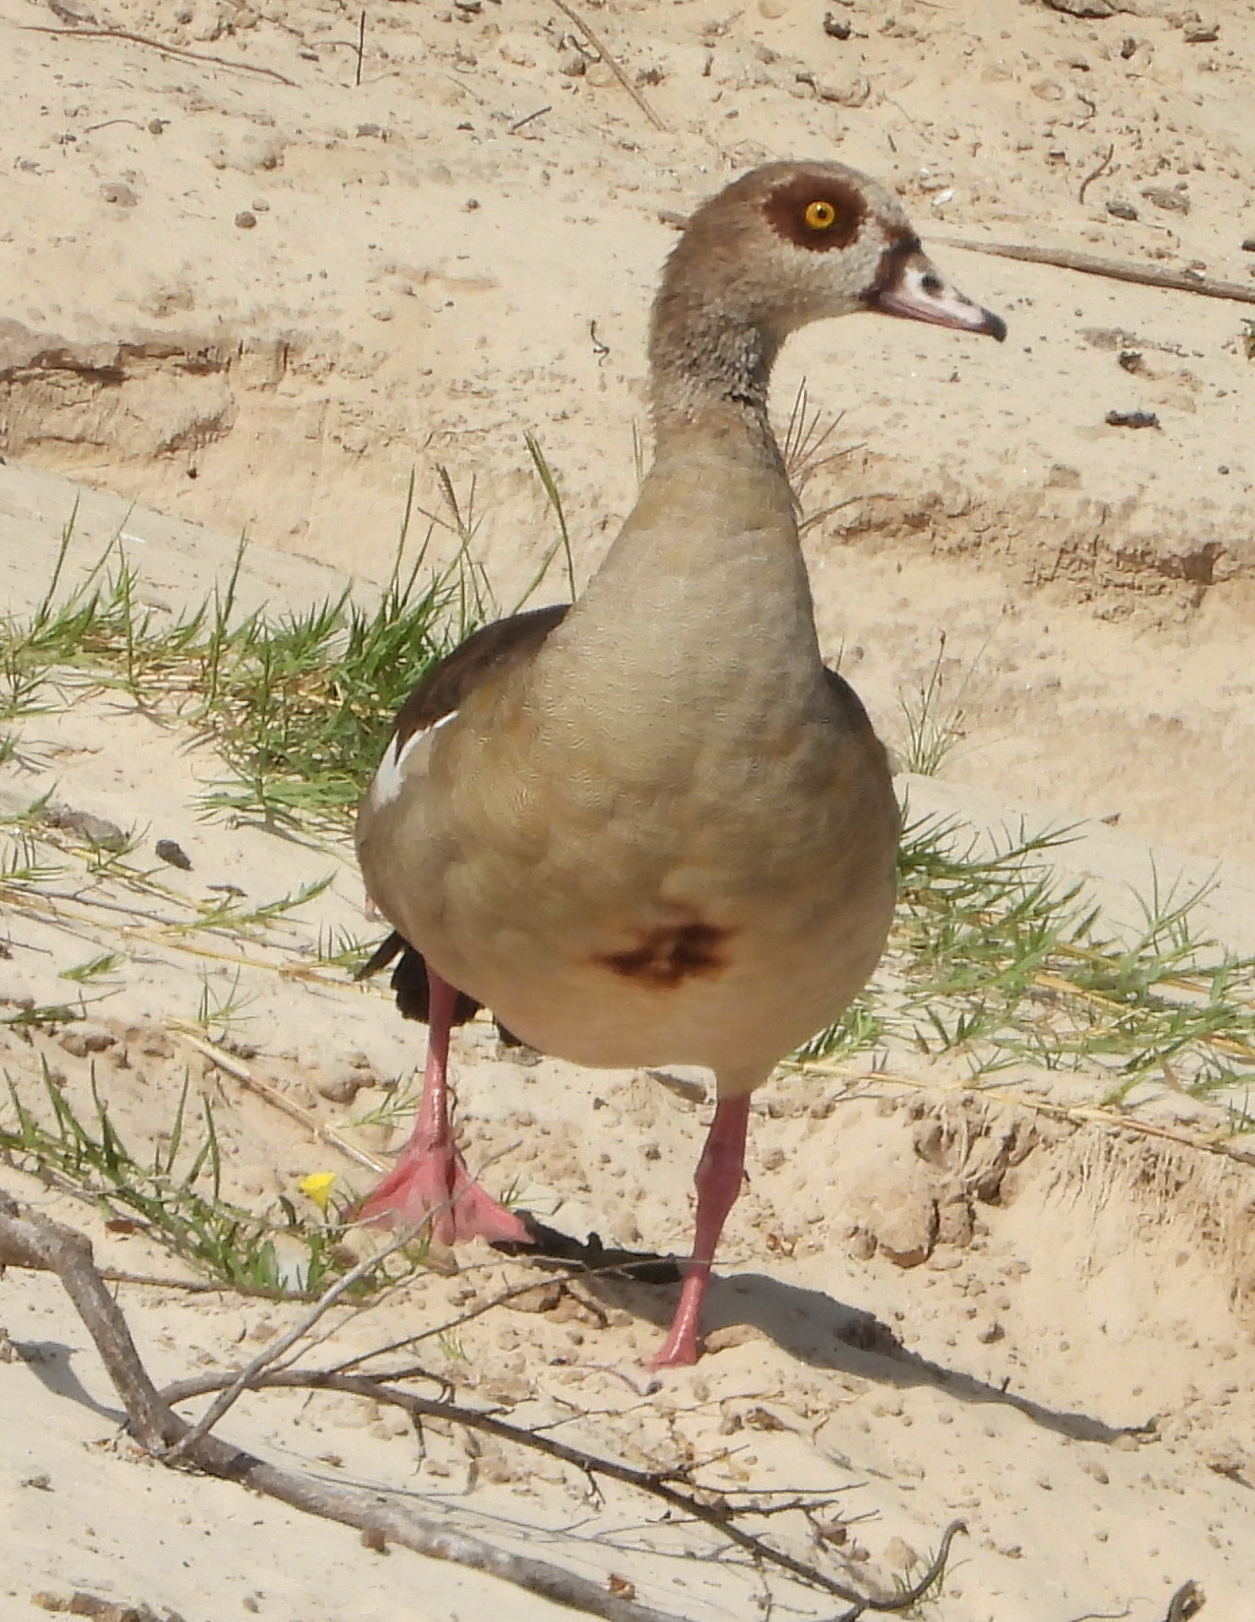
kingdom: Animalia
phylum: Chordata
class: Aves
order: Anseriformes
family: Anatidae
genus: Alopochen
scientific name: Alopochen aegyptiaca
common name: Egyptian goose
